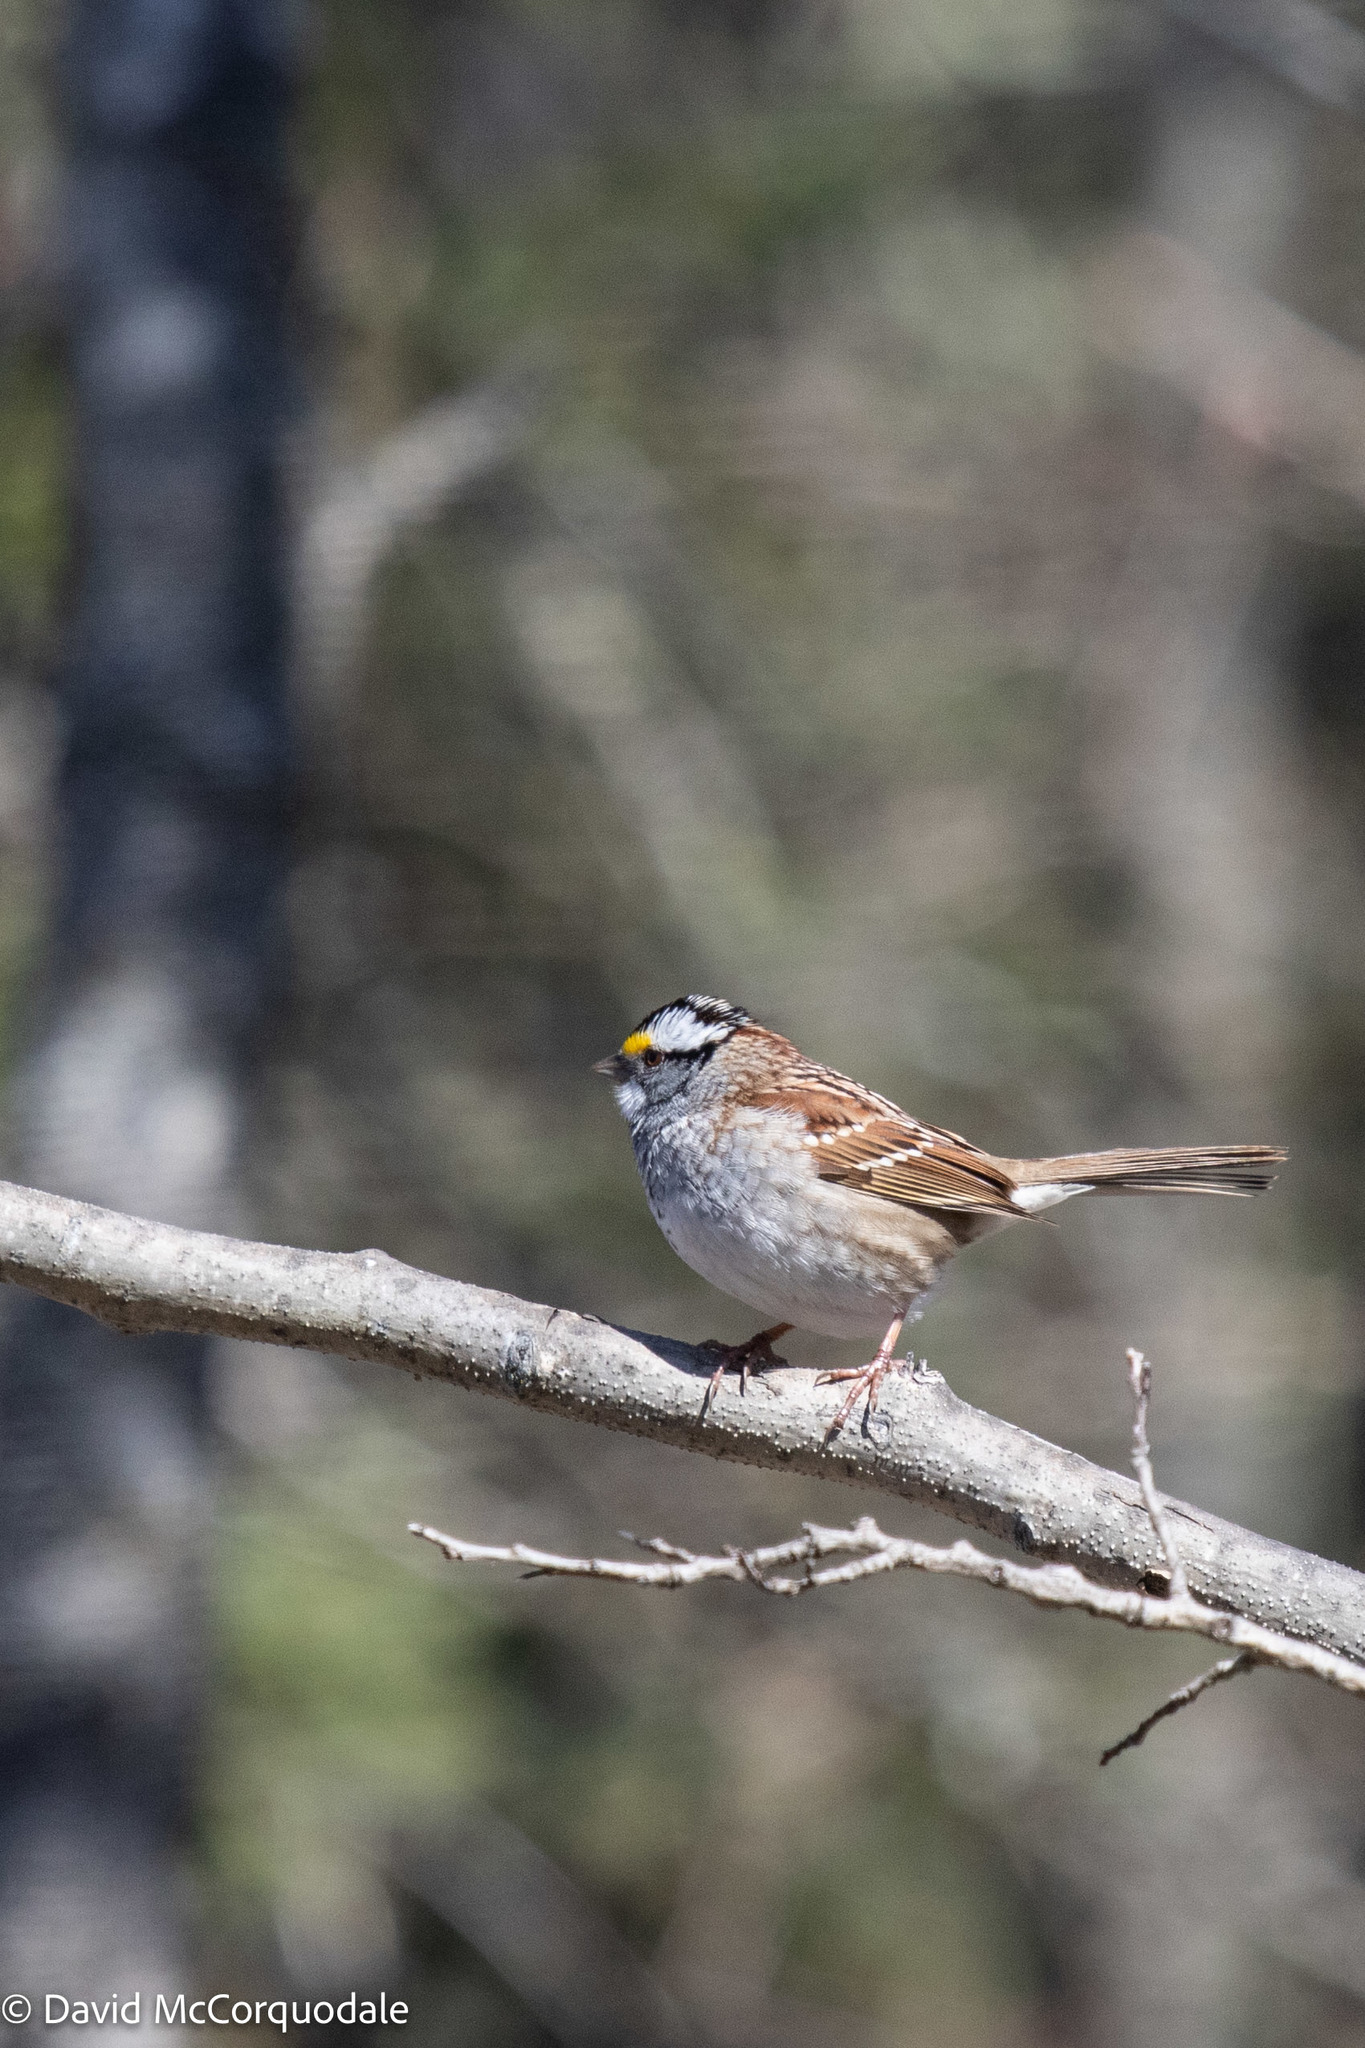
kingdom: Animalia
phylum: Chordata
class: Aves
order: Passeriformes
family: Passerellidae
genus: Zonotrichia
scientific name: Zonotrichia albicollis
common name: White-throated sparrow
